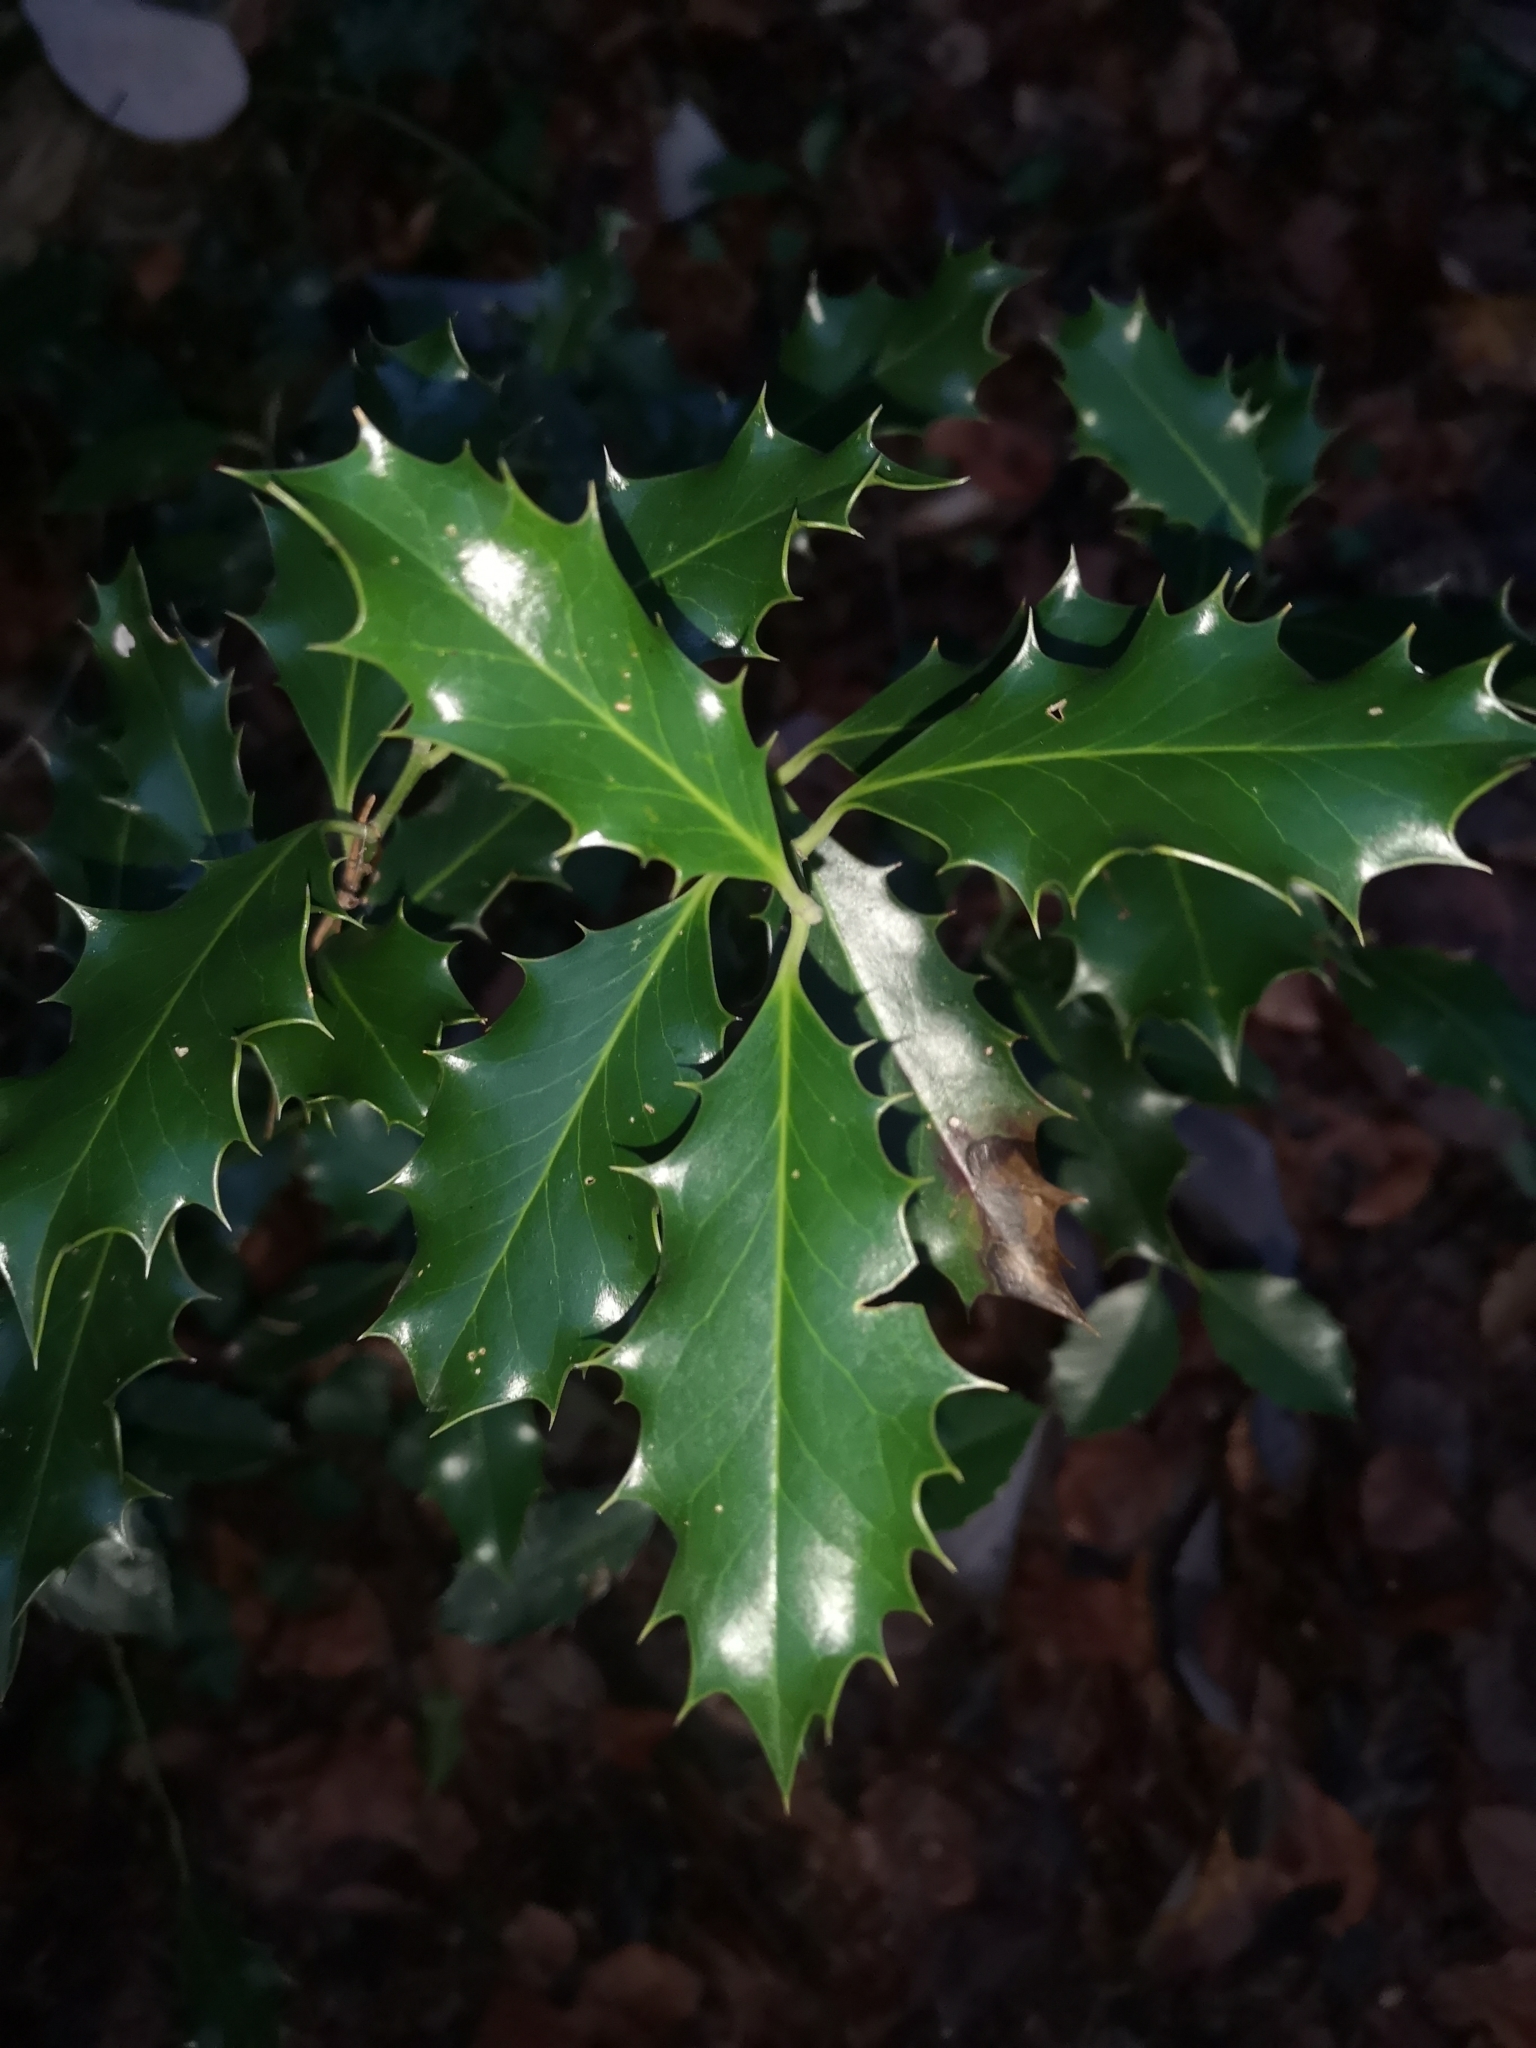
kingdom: Plantae
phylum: Tracheophyta
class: Magnoliopsida
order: Aquifoliales
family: Aquifoliaceae
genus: Ilex
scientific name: Ilex aquifolium
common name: English holly
